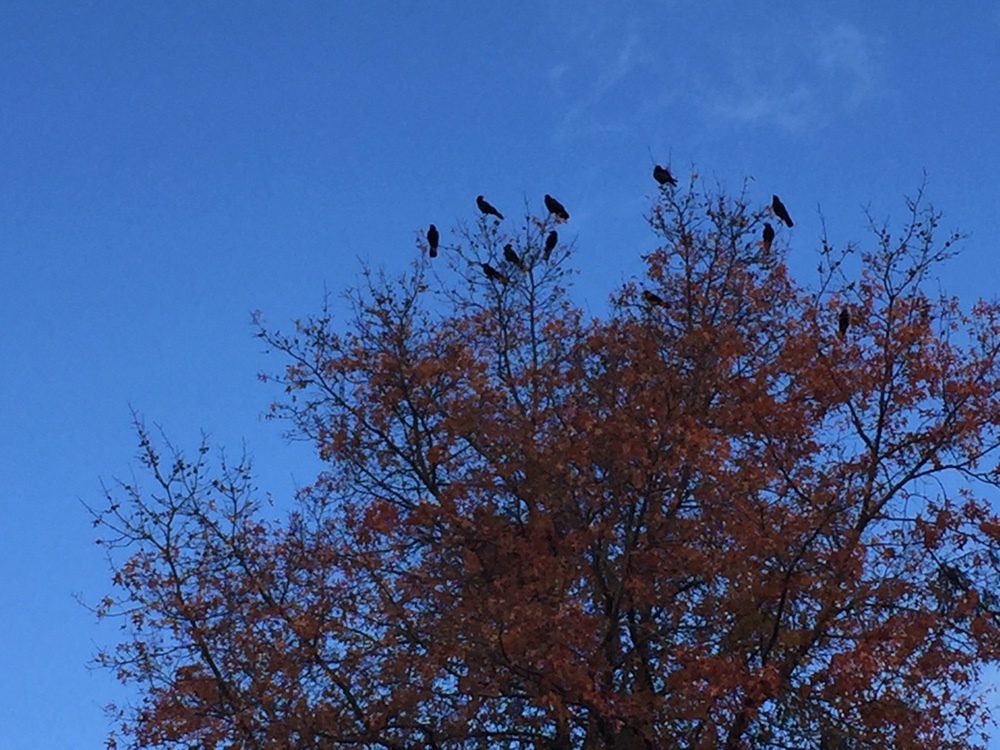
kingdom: Animalia
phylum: Chordata
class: Aves
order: Passeriformes
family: Corvidae
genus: Corvus
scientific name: Corvus brachyrhynchos
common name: American crow
